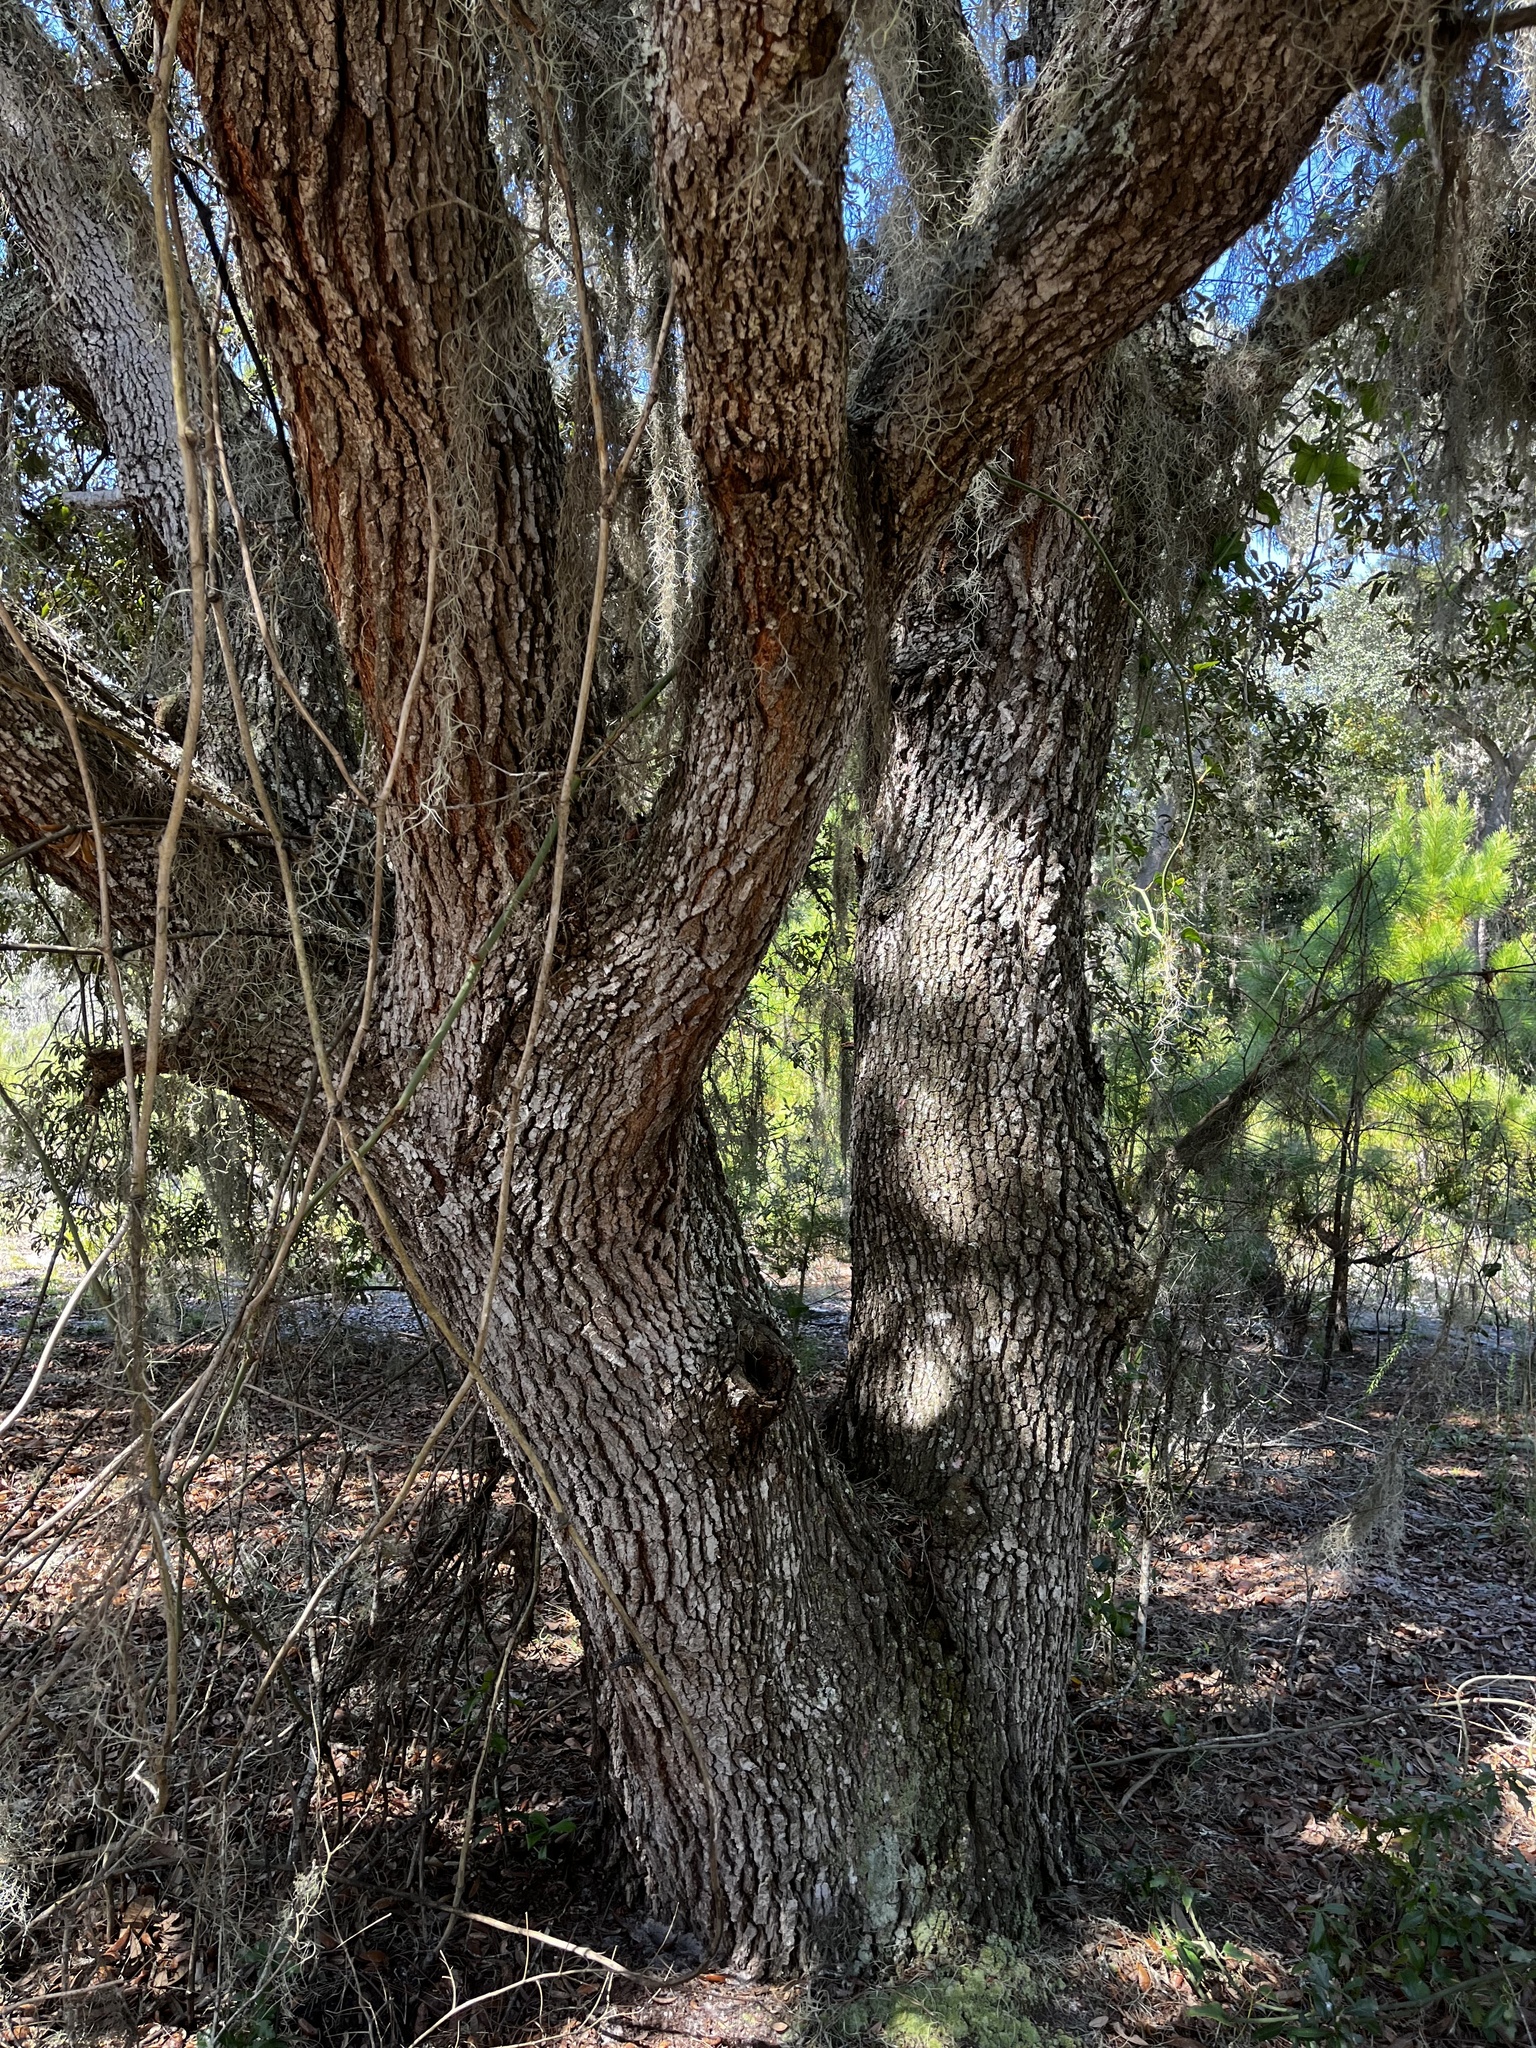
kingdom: Plantae
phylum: Tracheophyta
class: Magnoliopsida
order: Fagales
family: Fagaceae
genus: Quercus
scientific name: Quercus geminata
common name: Sand live oak
